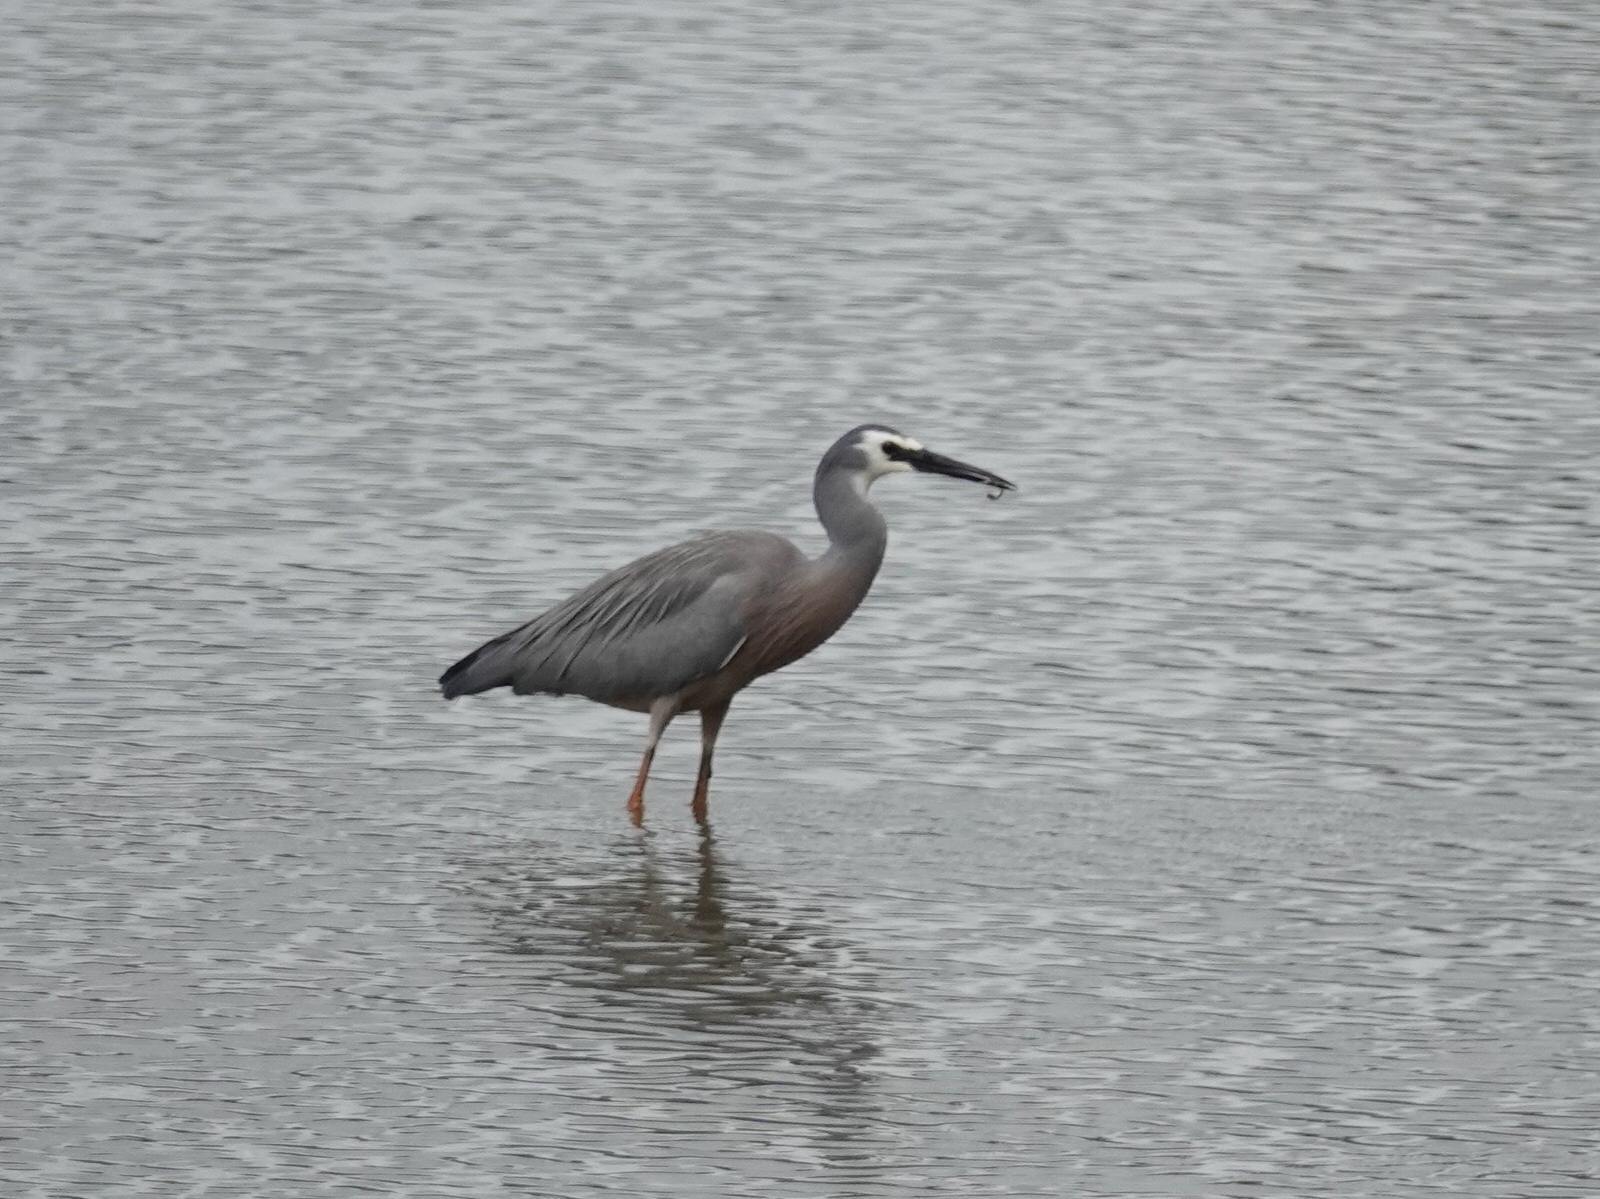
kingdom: Animalia
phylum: Chordata
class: Aves
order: Pelecaniformes
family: Ardeidae
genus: Egretta
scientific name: Egretta novaehollandiae
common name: White-faced heron
